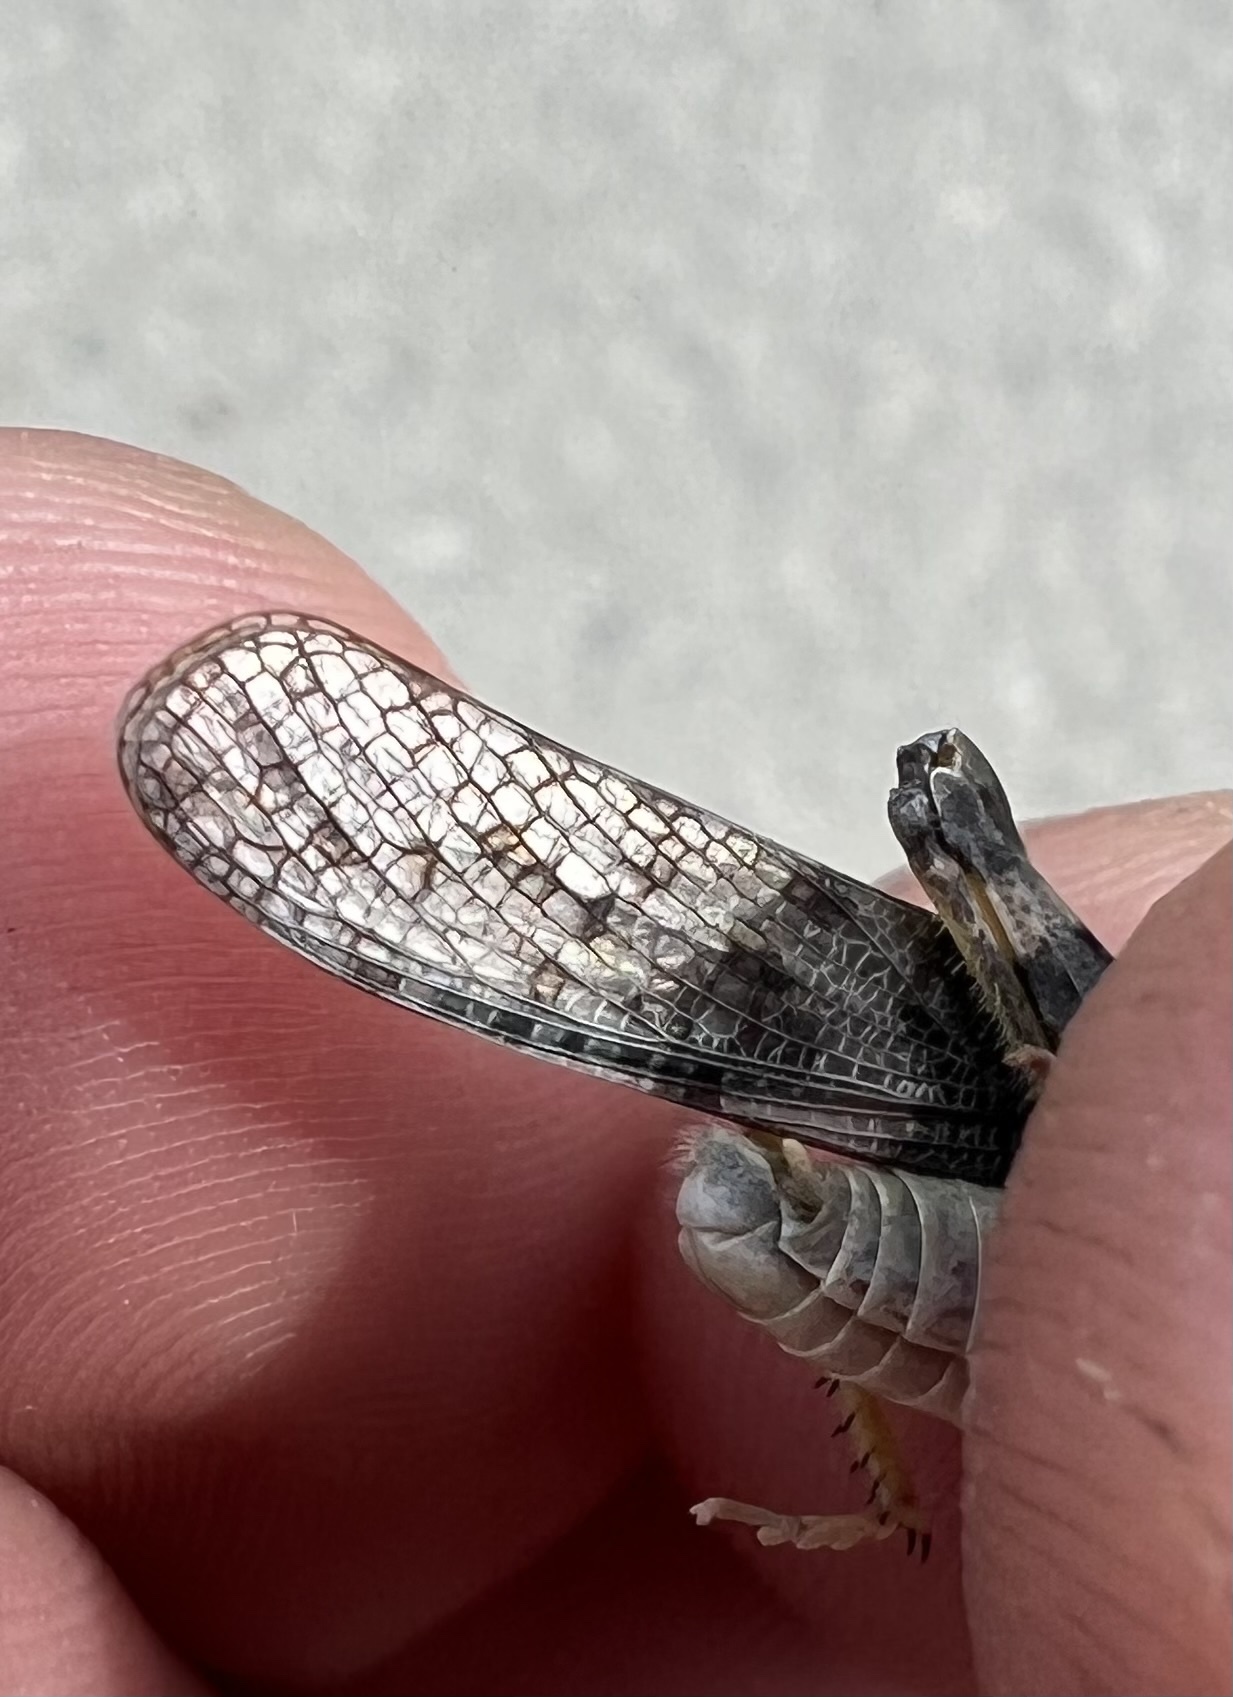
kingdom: Animalia
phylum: Arthropoda
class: Insecta
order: Orthoptera
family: Acrididae
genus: Trimerotropis
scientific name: Trimerotropis pallidipennis
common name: Pallid-winged grasshopper
